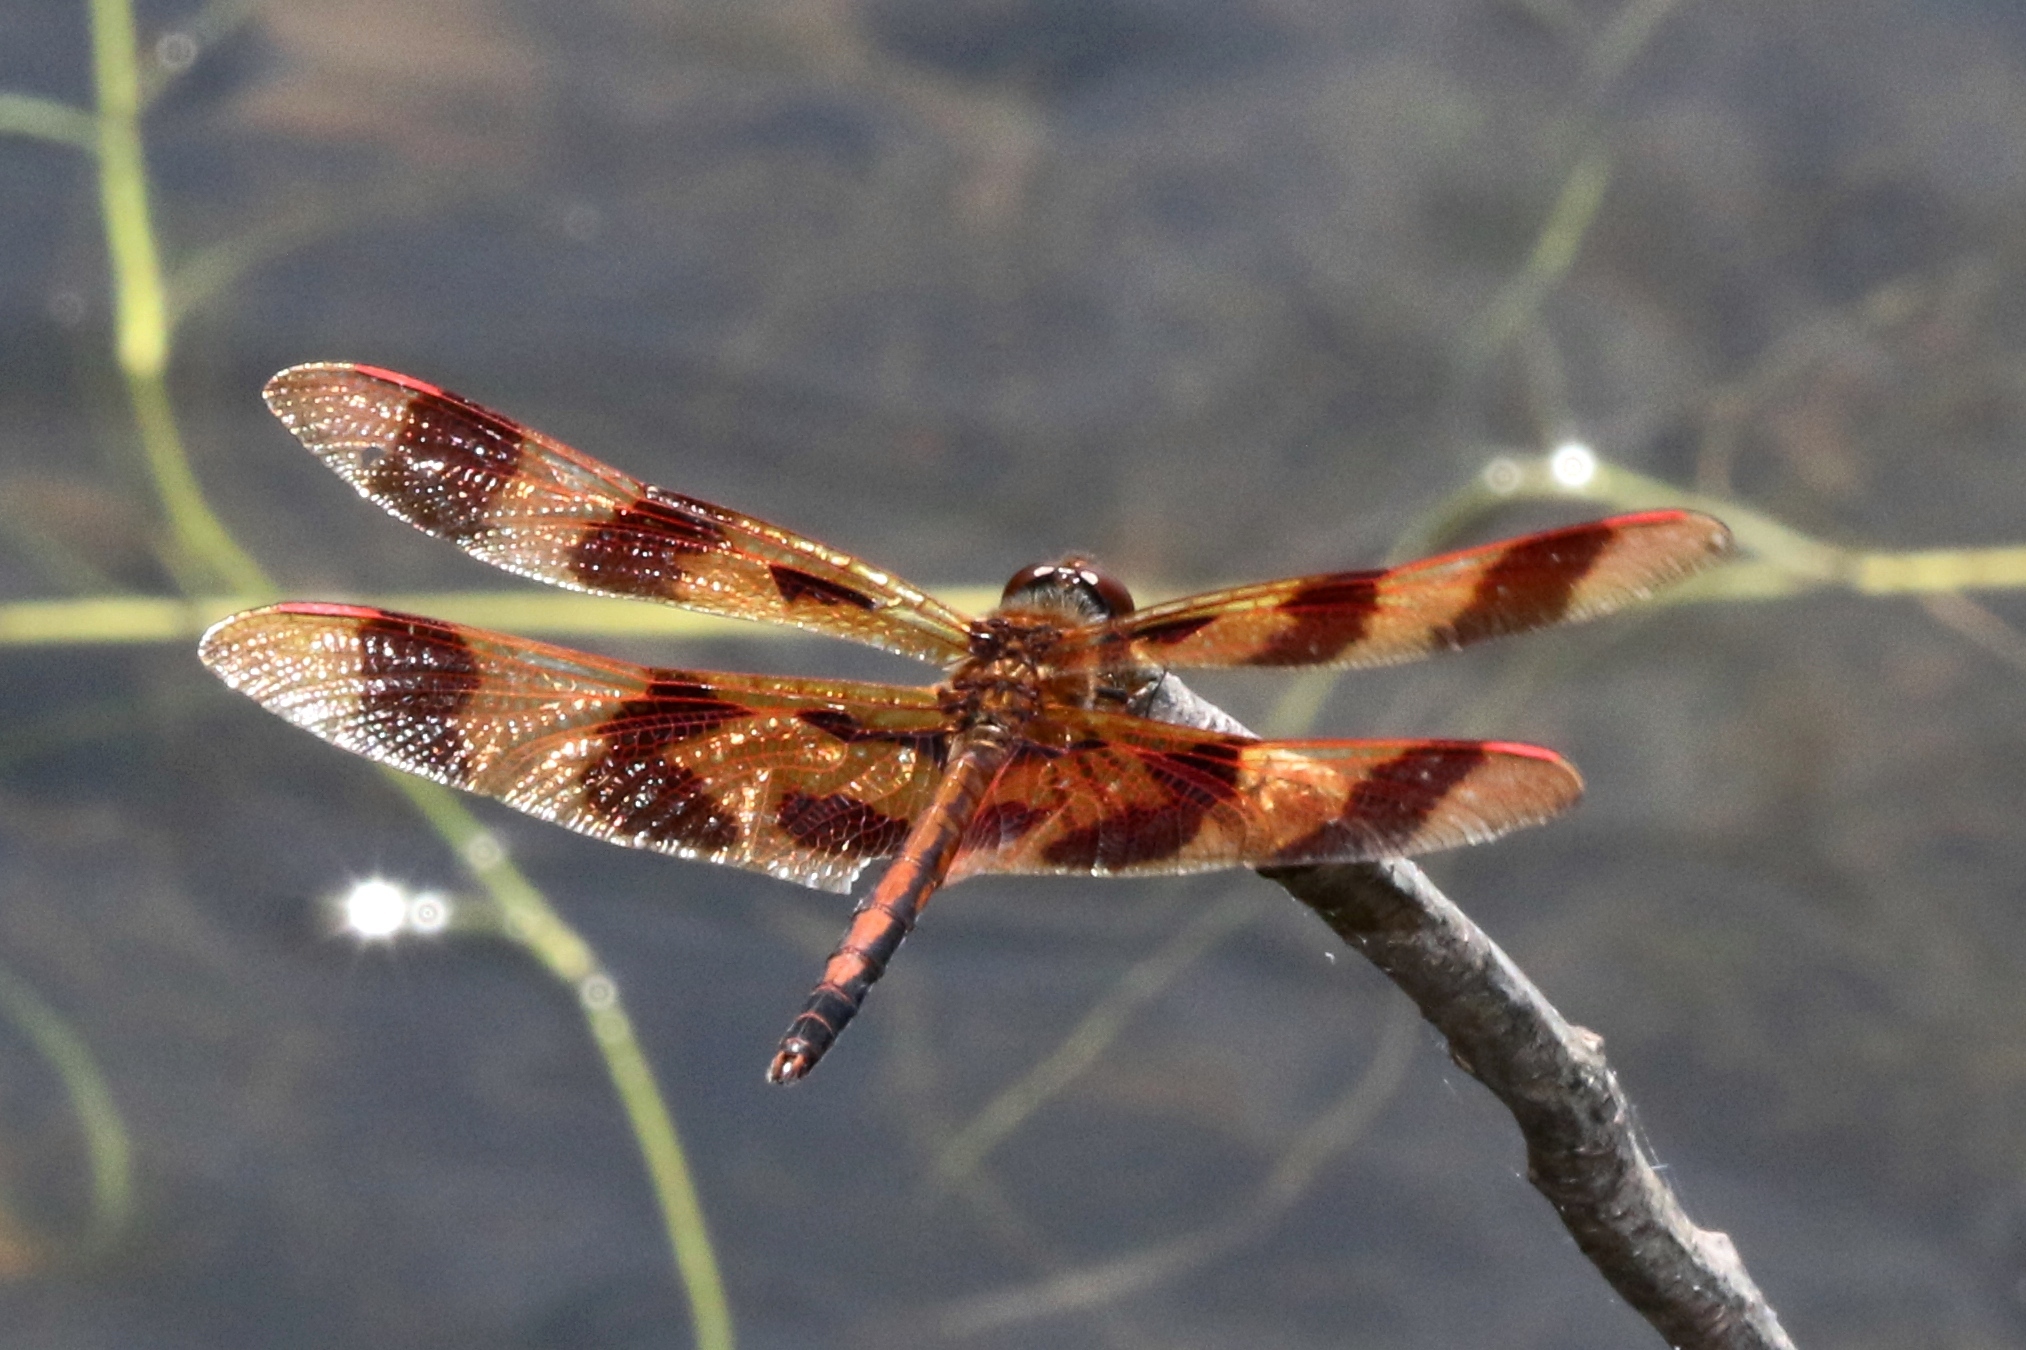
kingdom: Animalia
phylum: Arthropoda
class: Insecta
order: Odonata
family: Libellulidae
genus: Celithemis
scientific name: Celithemis eponina
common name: Halloween pennant
